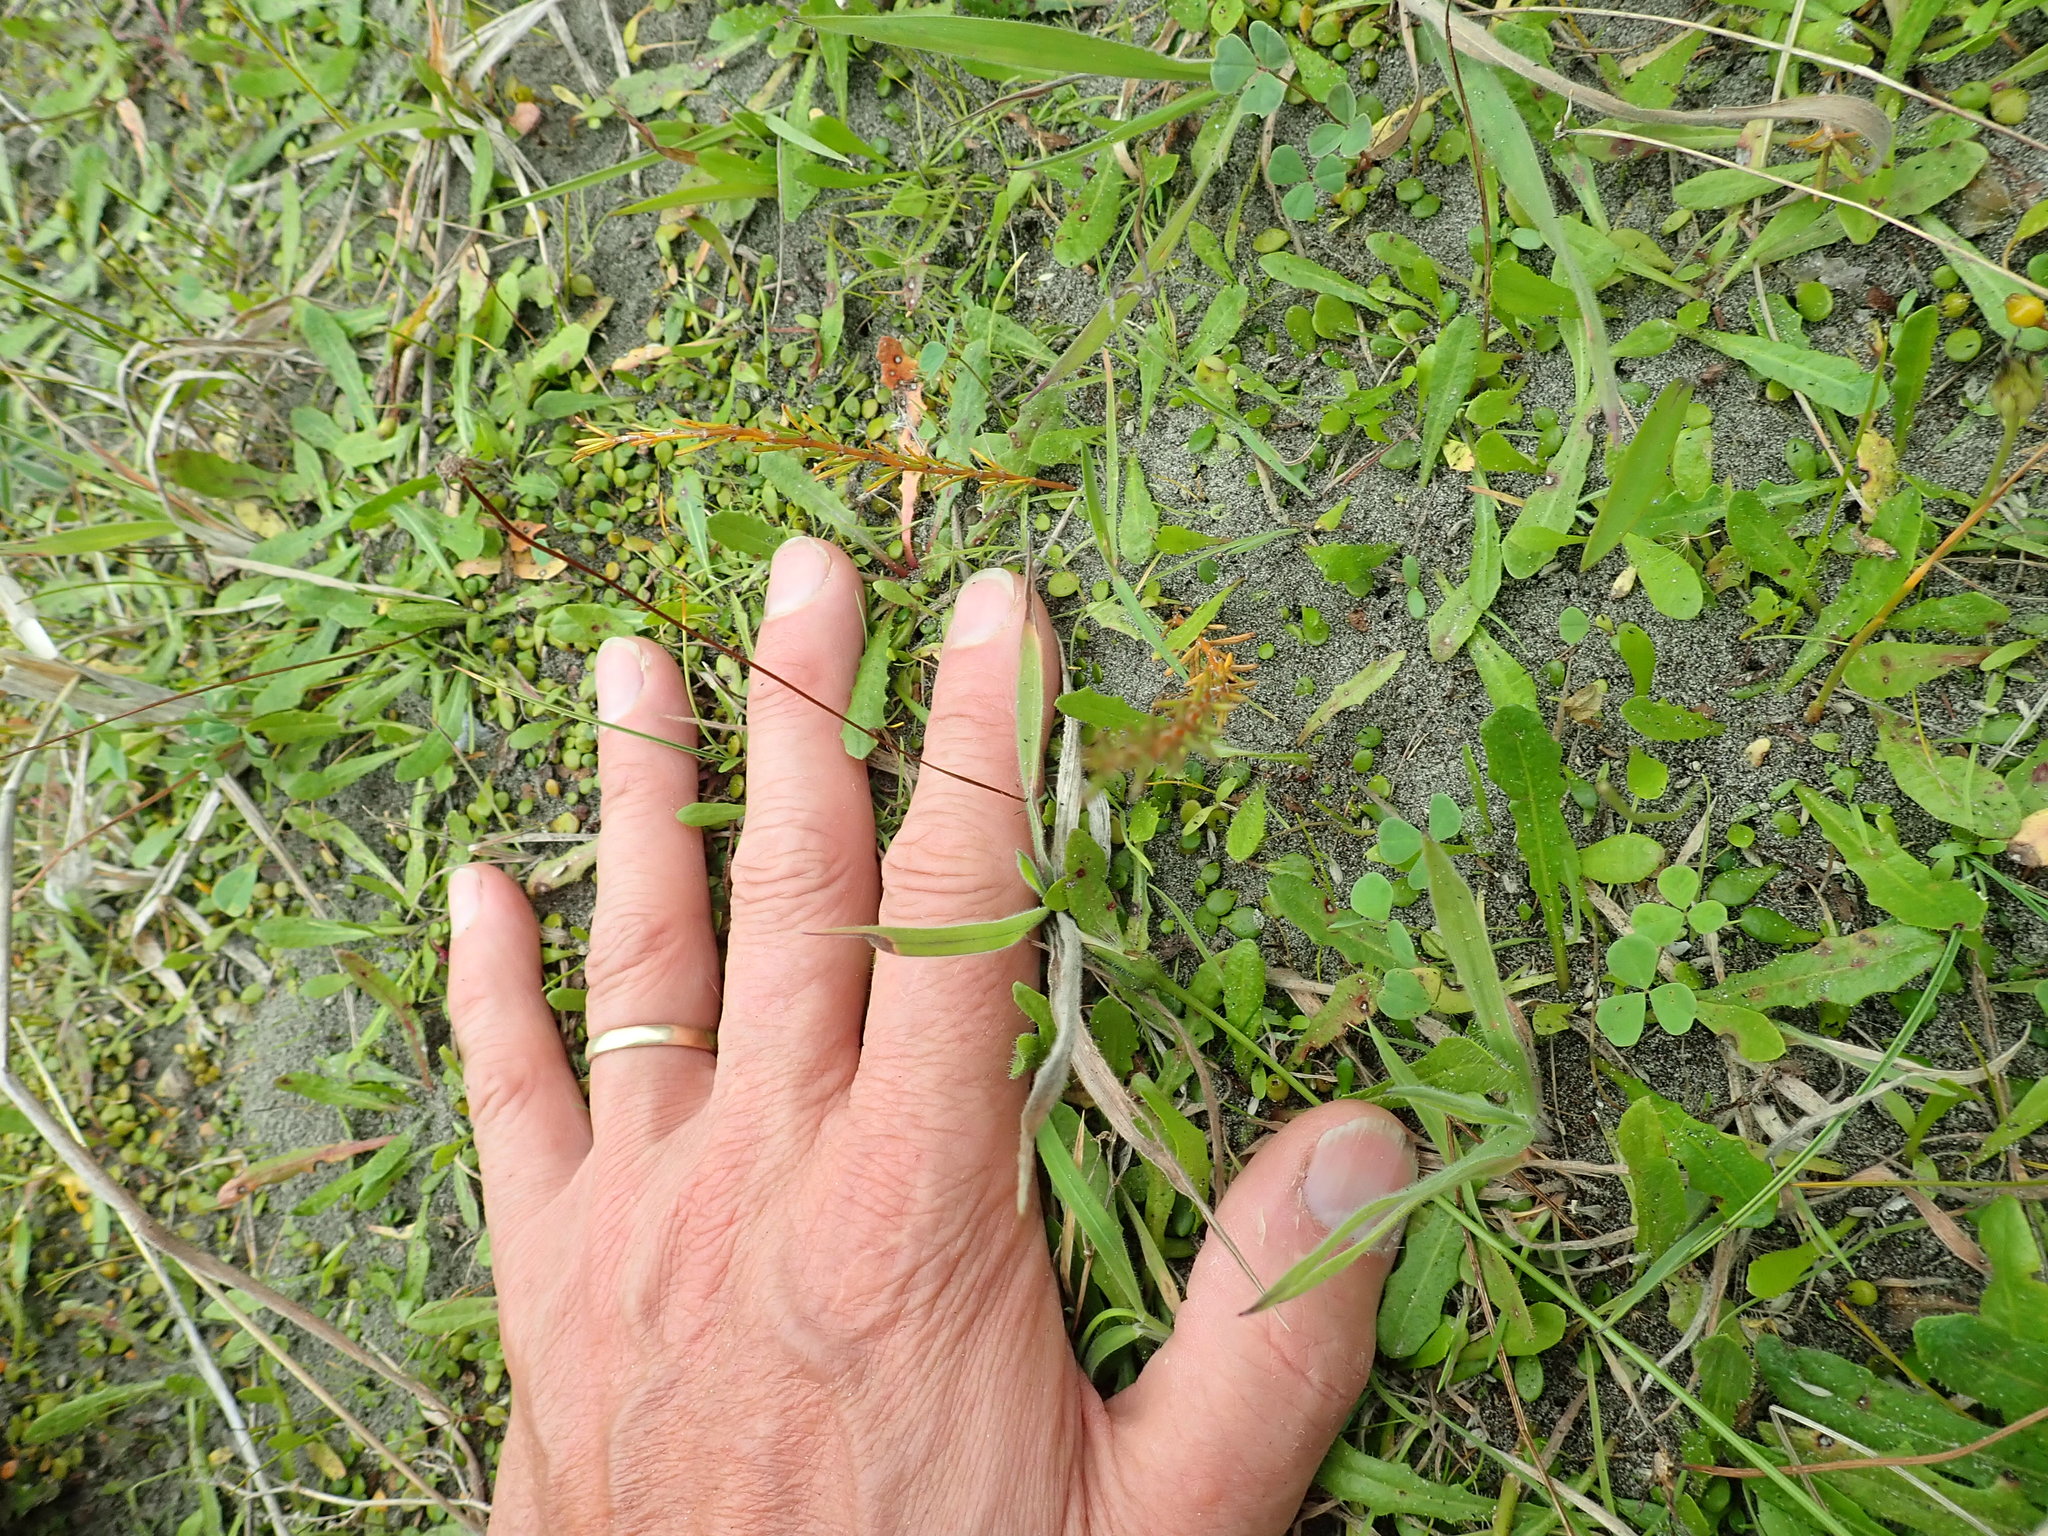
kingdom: Plantae
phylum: Tracheophyta
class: Magnoliopsida
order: Gentianales
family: Rubiaceae
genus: Coprosma
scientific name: Coprosma acerosa
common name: Sand coprosma
